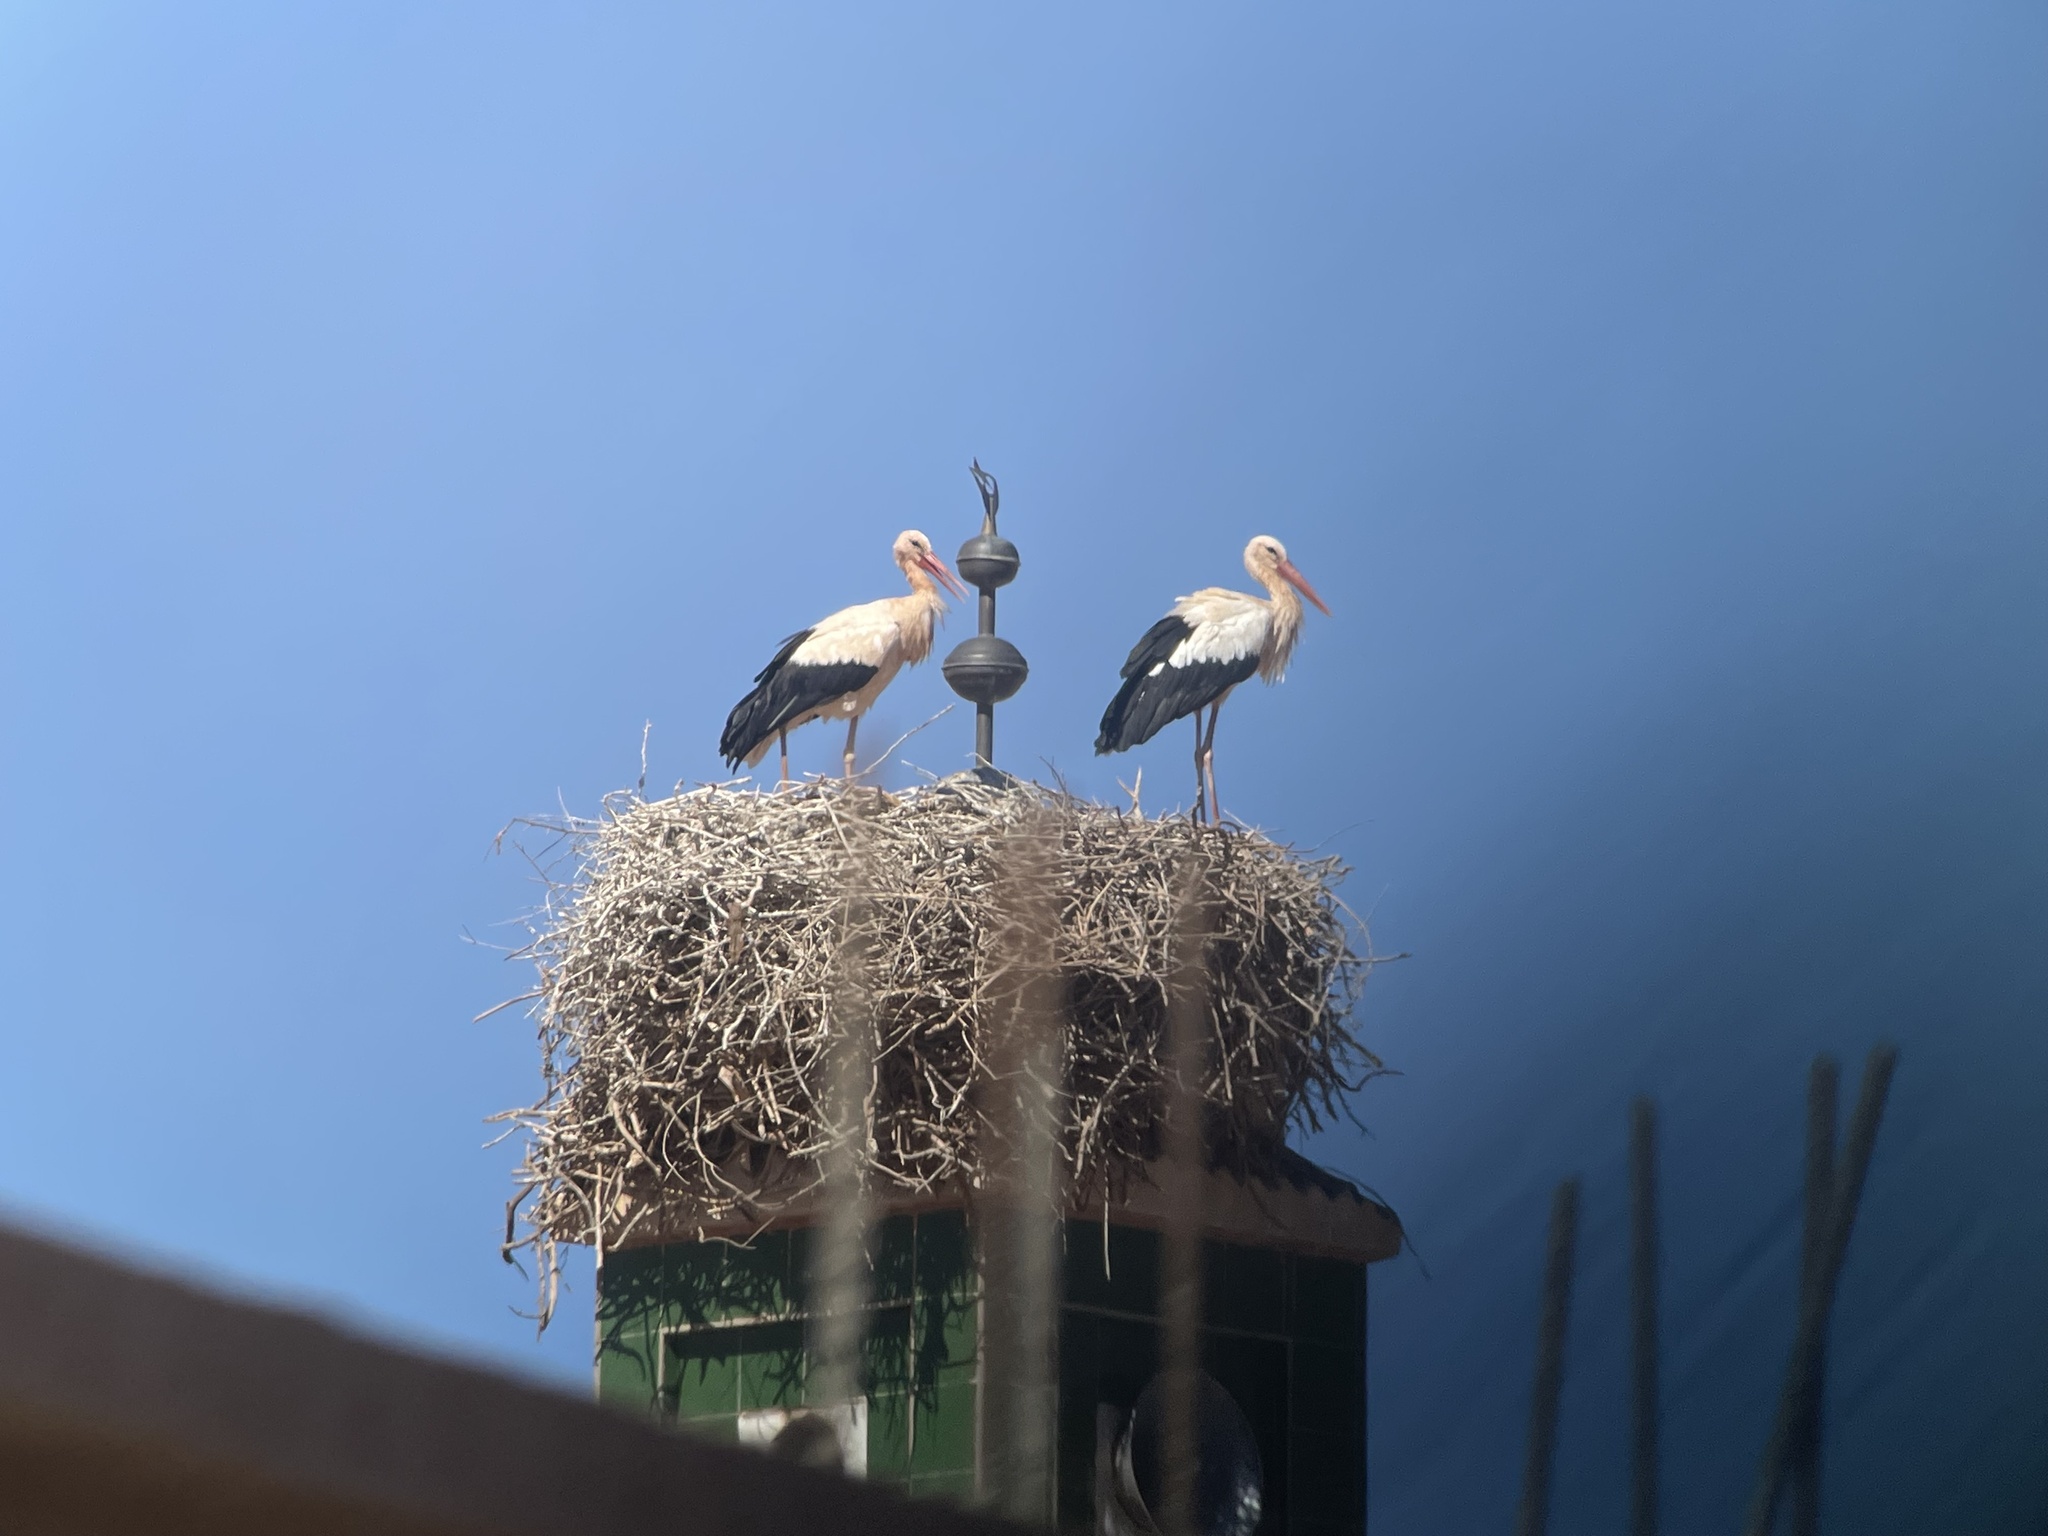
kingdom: Animalia
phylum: Chordata
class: Aves
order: Ciconiiformes
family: Ciconiidae
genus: Ciconia
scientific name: Ciconia ciconia
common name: White stork
